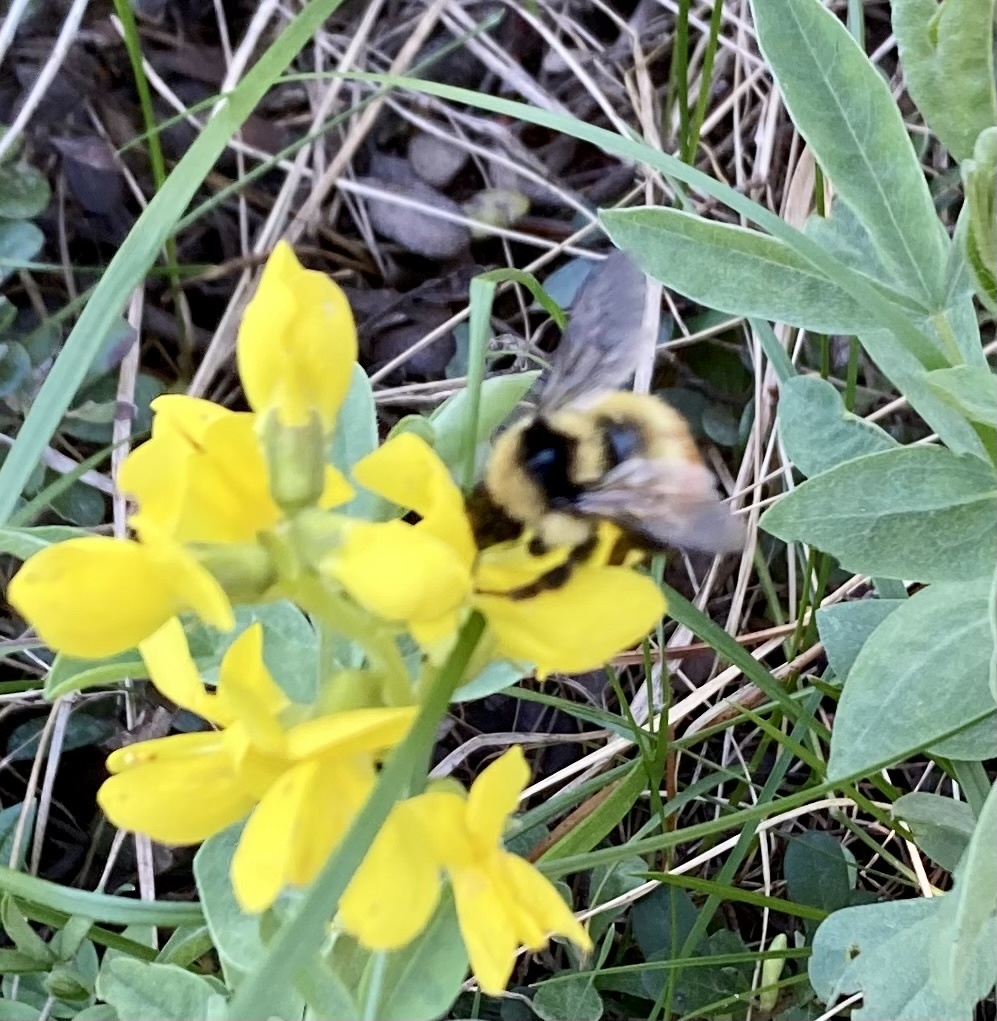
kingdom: Animalia
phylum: Arthropoda
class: Insecta
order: Hymenoptera
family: Apidae
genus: Bombus
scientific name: Bombus centralis
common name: Central bumble bee
